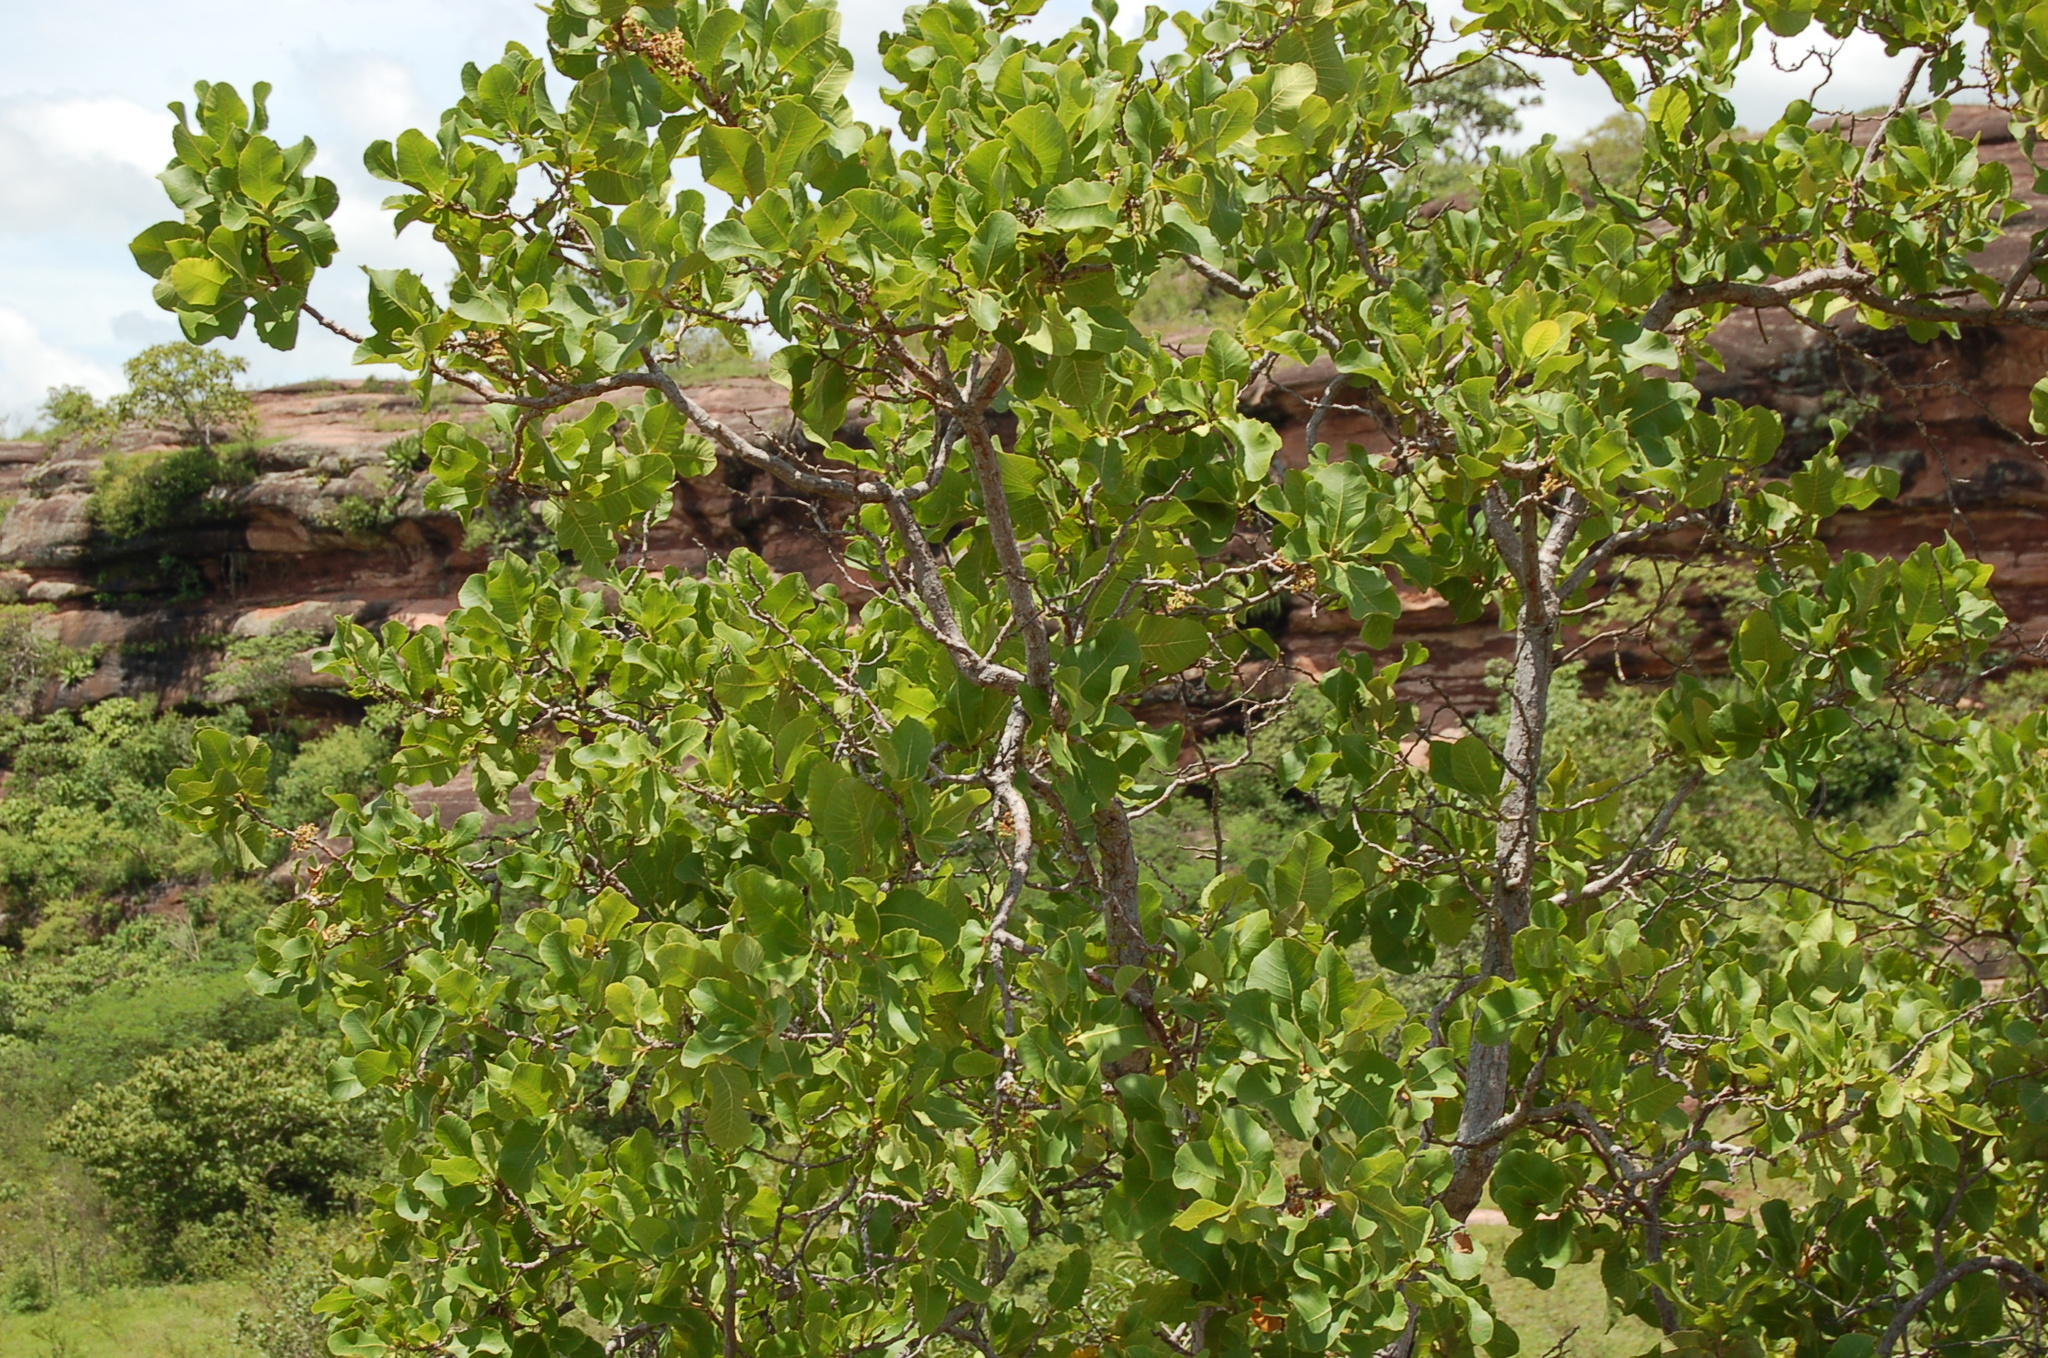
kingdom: Plantae
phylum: Tracheophyta
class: Magnoliopsida
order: Dilleniales
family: Dilleniaceae
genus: Curatella
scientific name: Curatella americana
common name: Sandpaper tree
